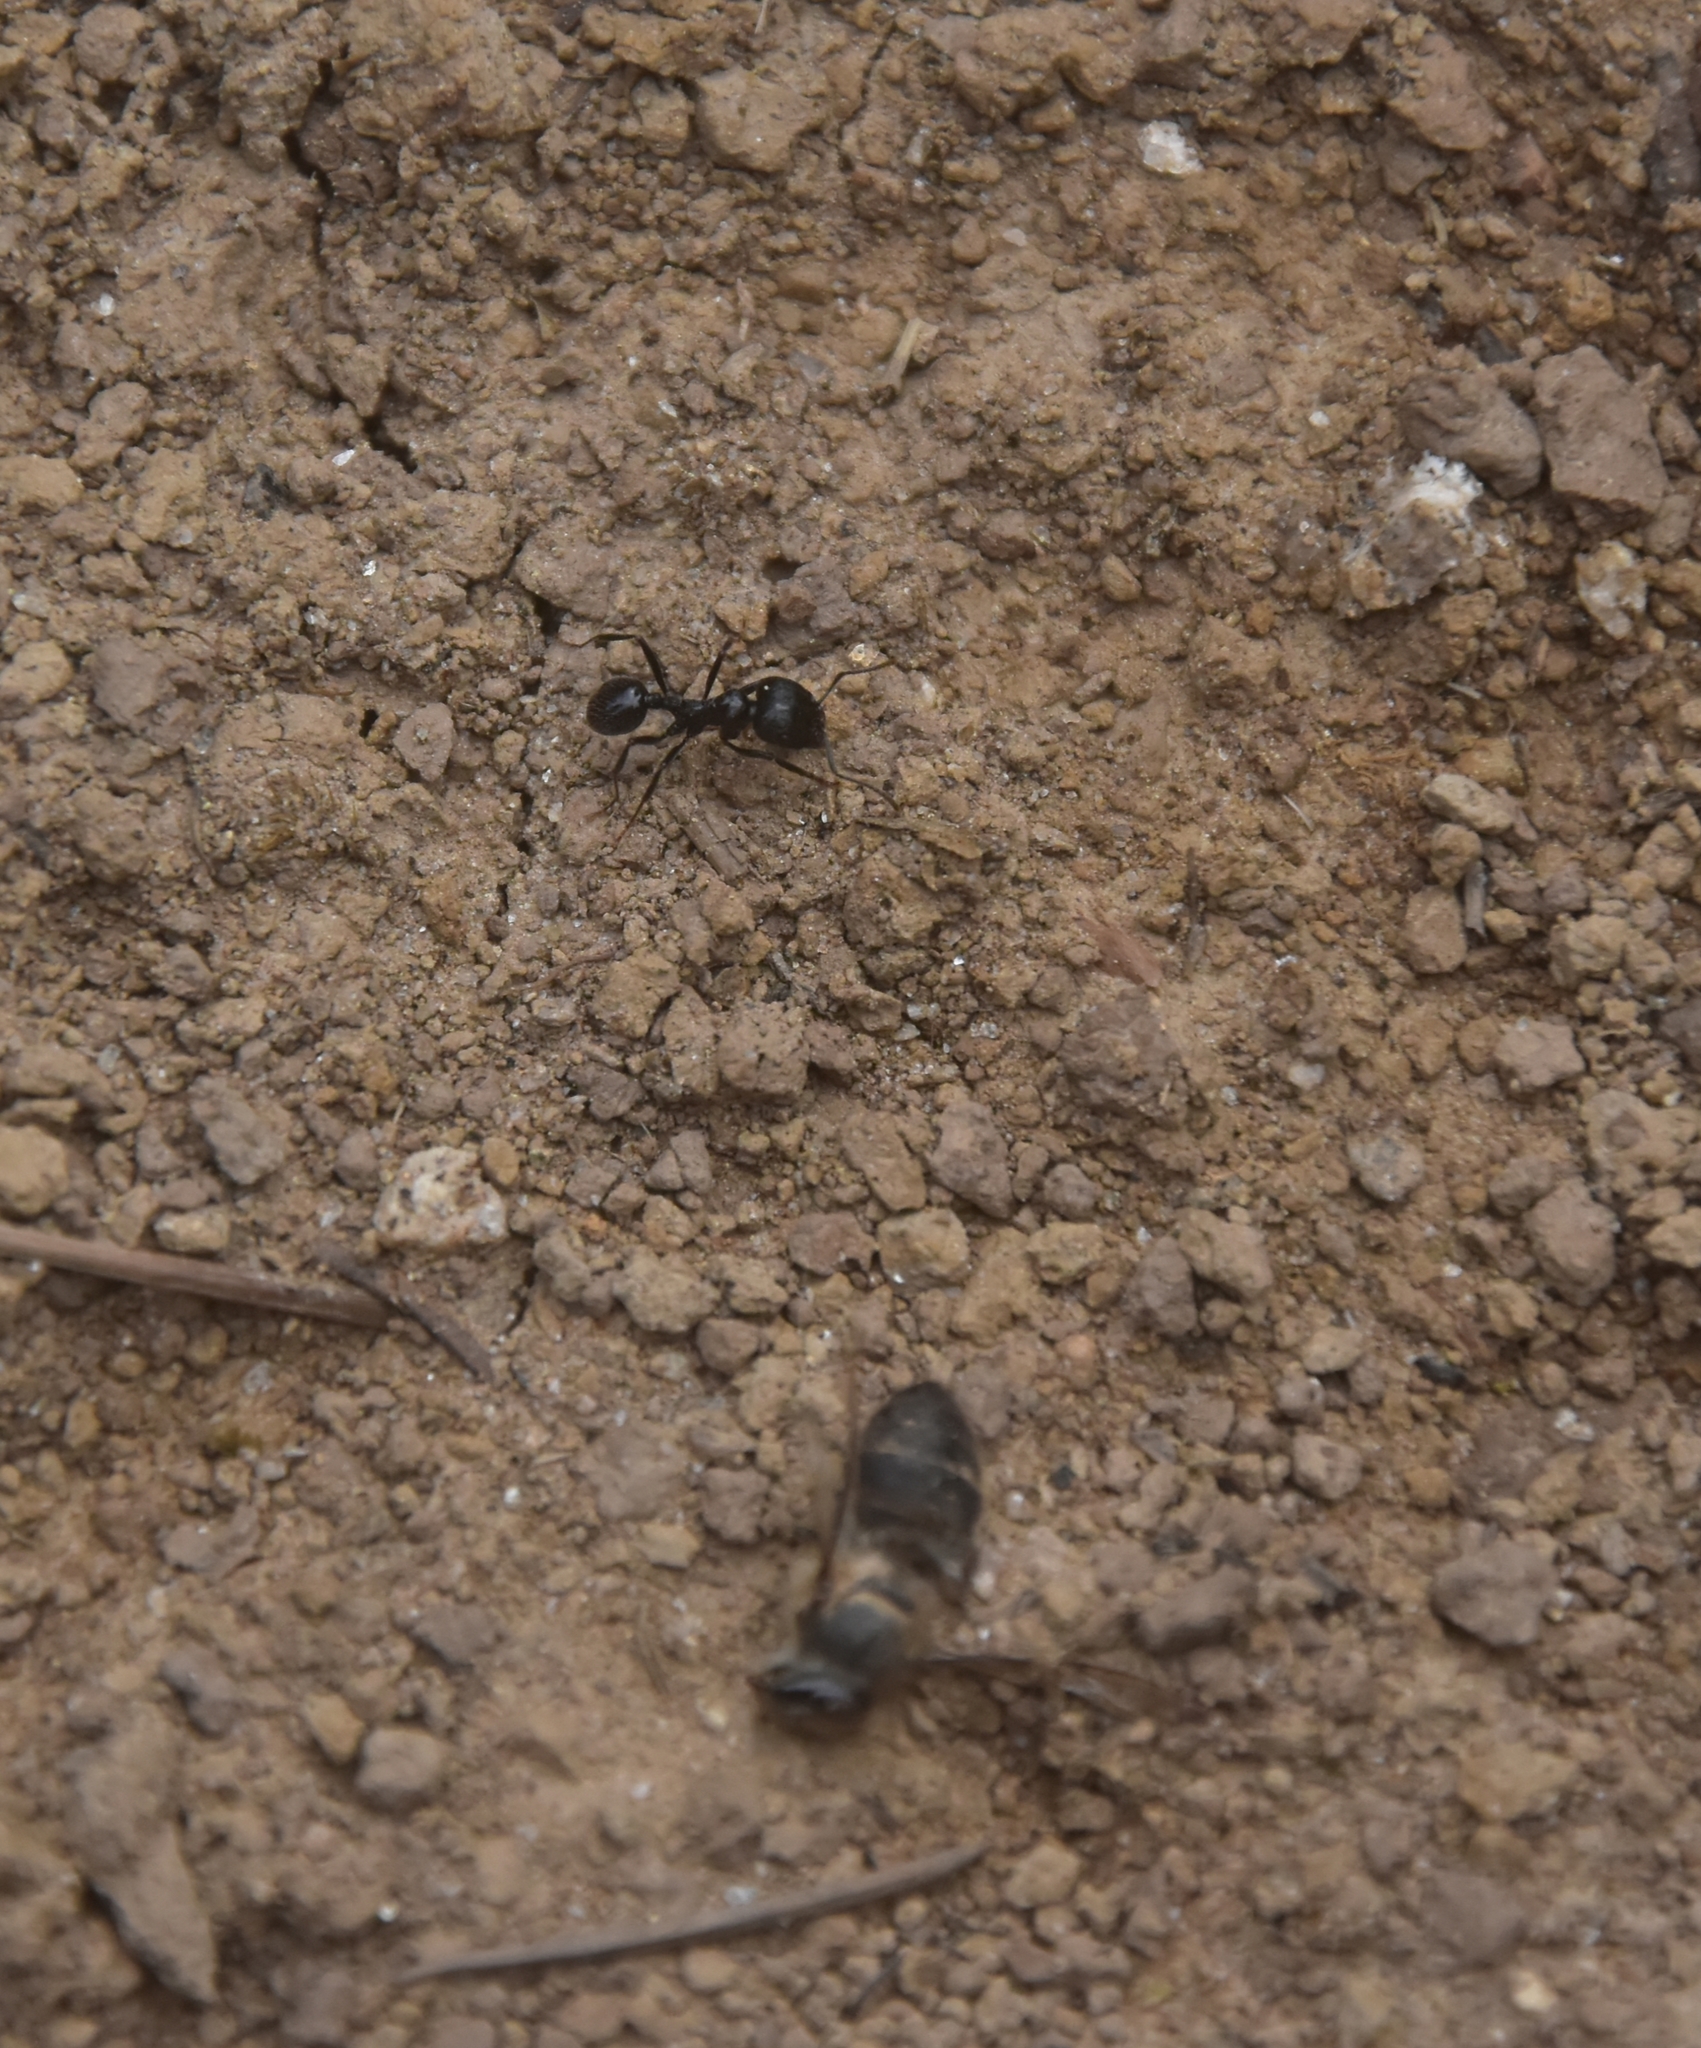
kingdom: Animalia
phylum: Arthropoda
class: Insecta
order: Hymenoptera
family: Formicidae
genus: Messor
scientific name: Messor himalayanus
